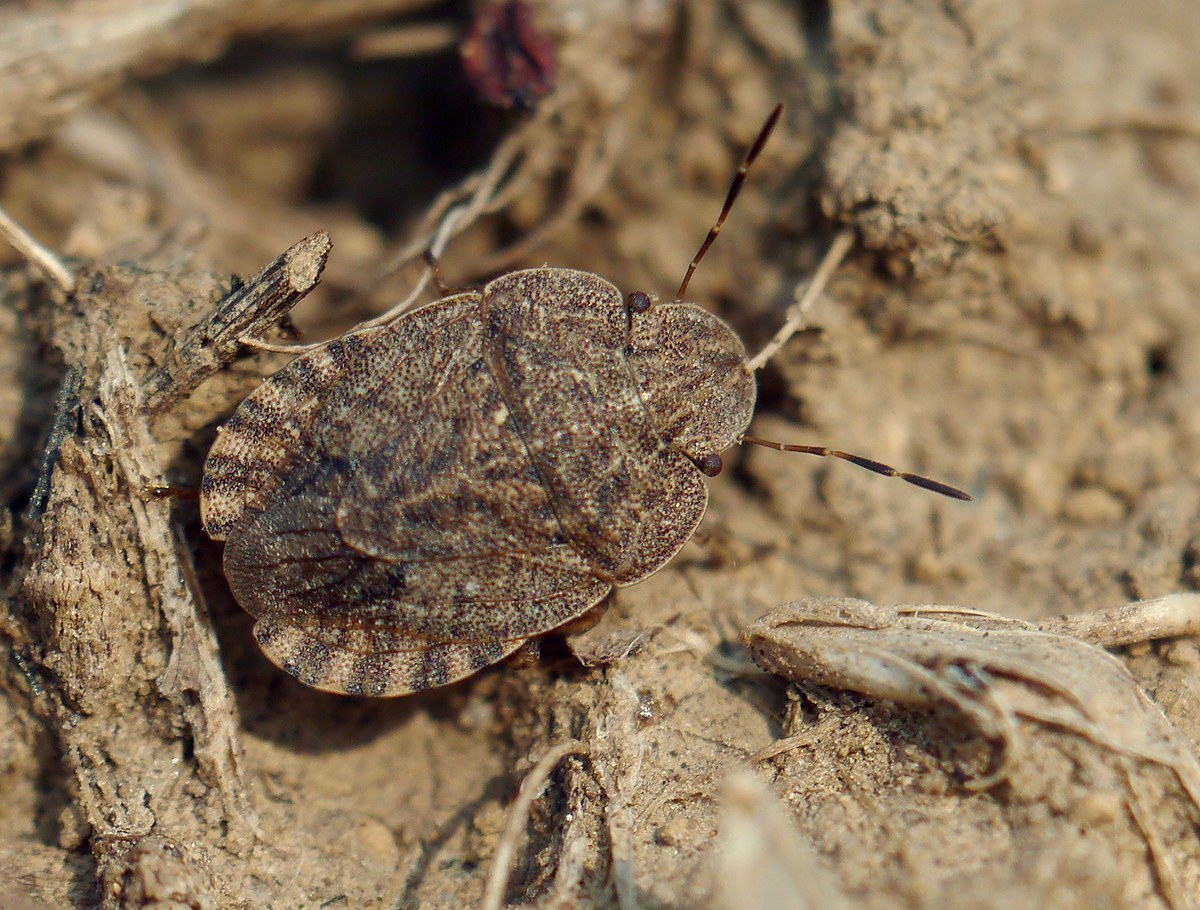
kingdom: Animalia
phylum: Arthropoda
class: Insecta
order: Hemiptera
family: Pentatomidae
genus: Sciocoris
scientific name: Sciocoris homalonotus
